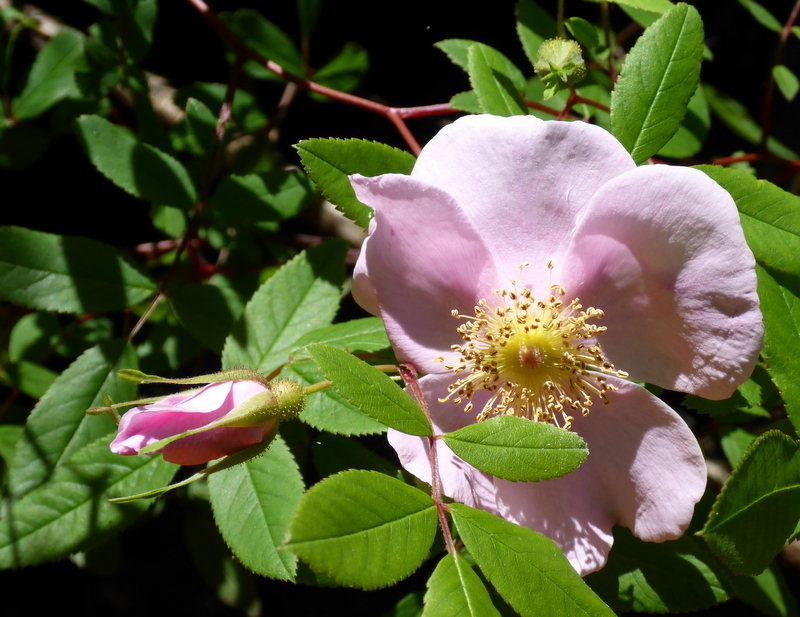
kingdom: Plantae
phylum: Tracheophyta
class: Magnoliopsida
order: Rosales
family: Rosaceae
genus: Rosa
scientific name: Rosa palustris
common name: Swamp rose
